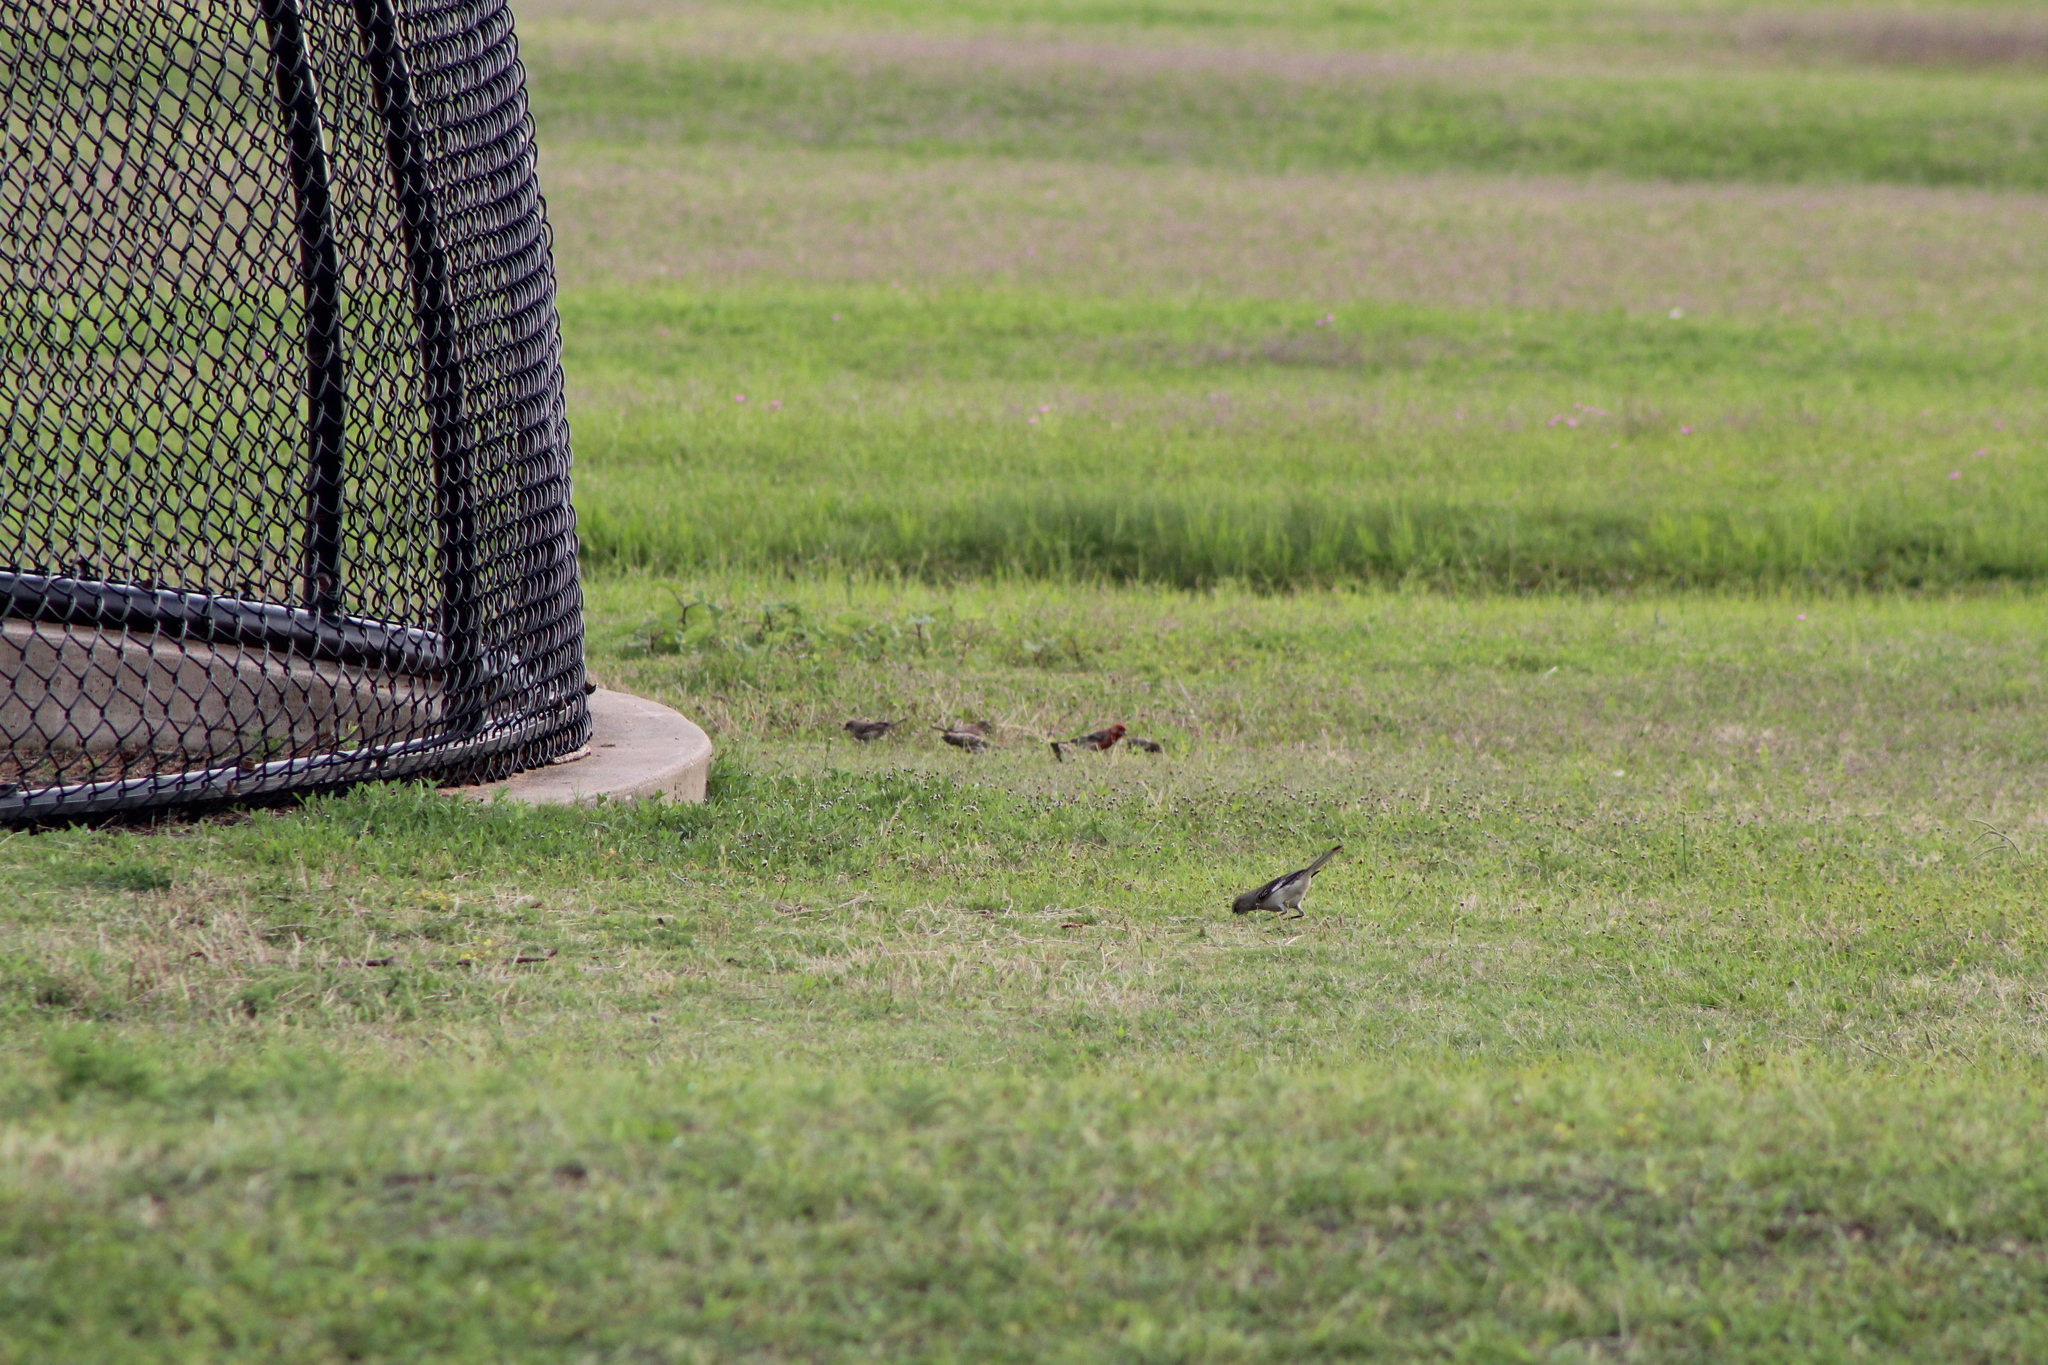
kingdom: Animalia
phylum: Chordata
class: Aves
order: Passeriformes
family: Mimidae
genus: Mimus
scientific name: Mimus polyglottos
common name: Northern mockingbird
